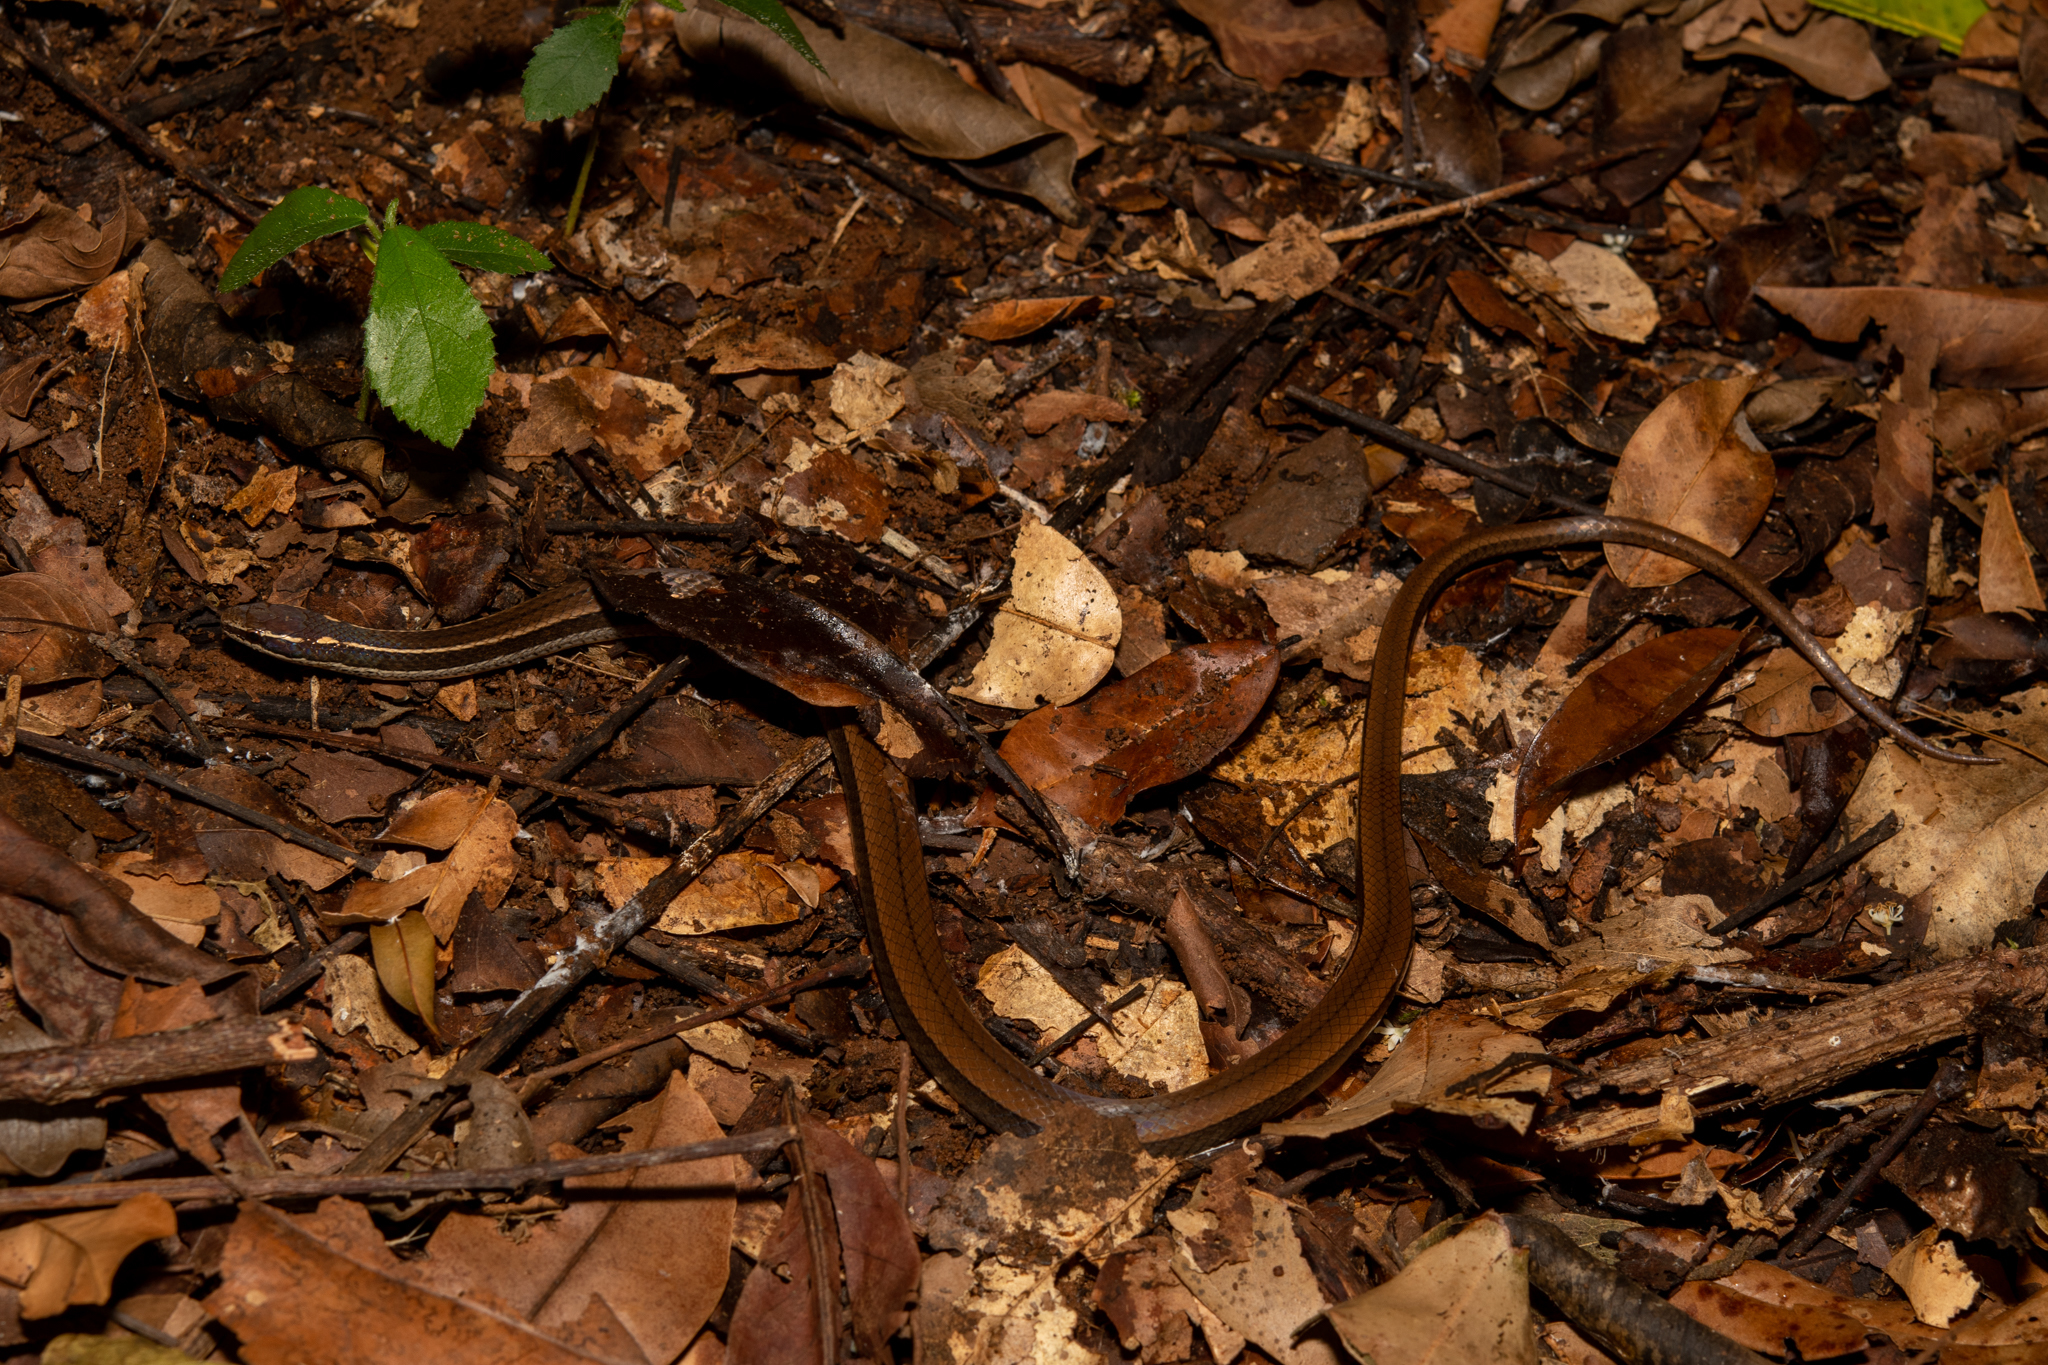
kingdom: Animalia
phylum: Chordata
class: Squamata
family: Colubridae
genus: Coniophanes
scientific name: Coniophanes imperialis
